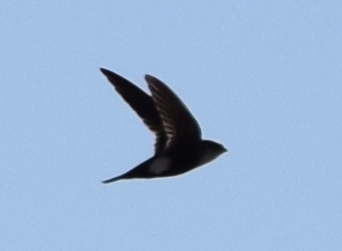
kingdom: Animalia
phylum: Chordata
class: Aves
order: Apodiformes
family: Apodidae
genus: Aeronautes
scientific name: Aeronautes saxatalis
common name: White-throated swift
